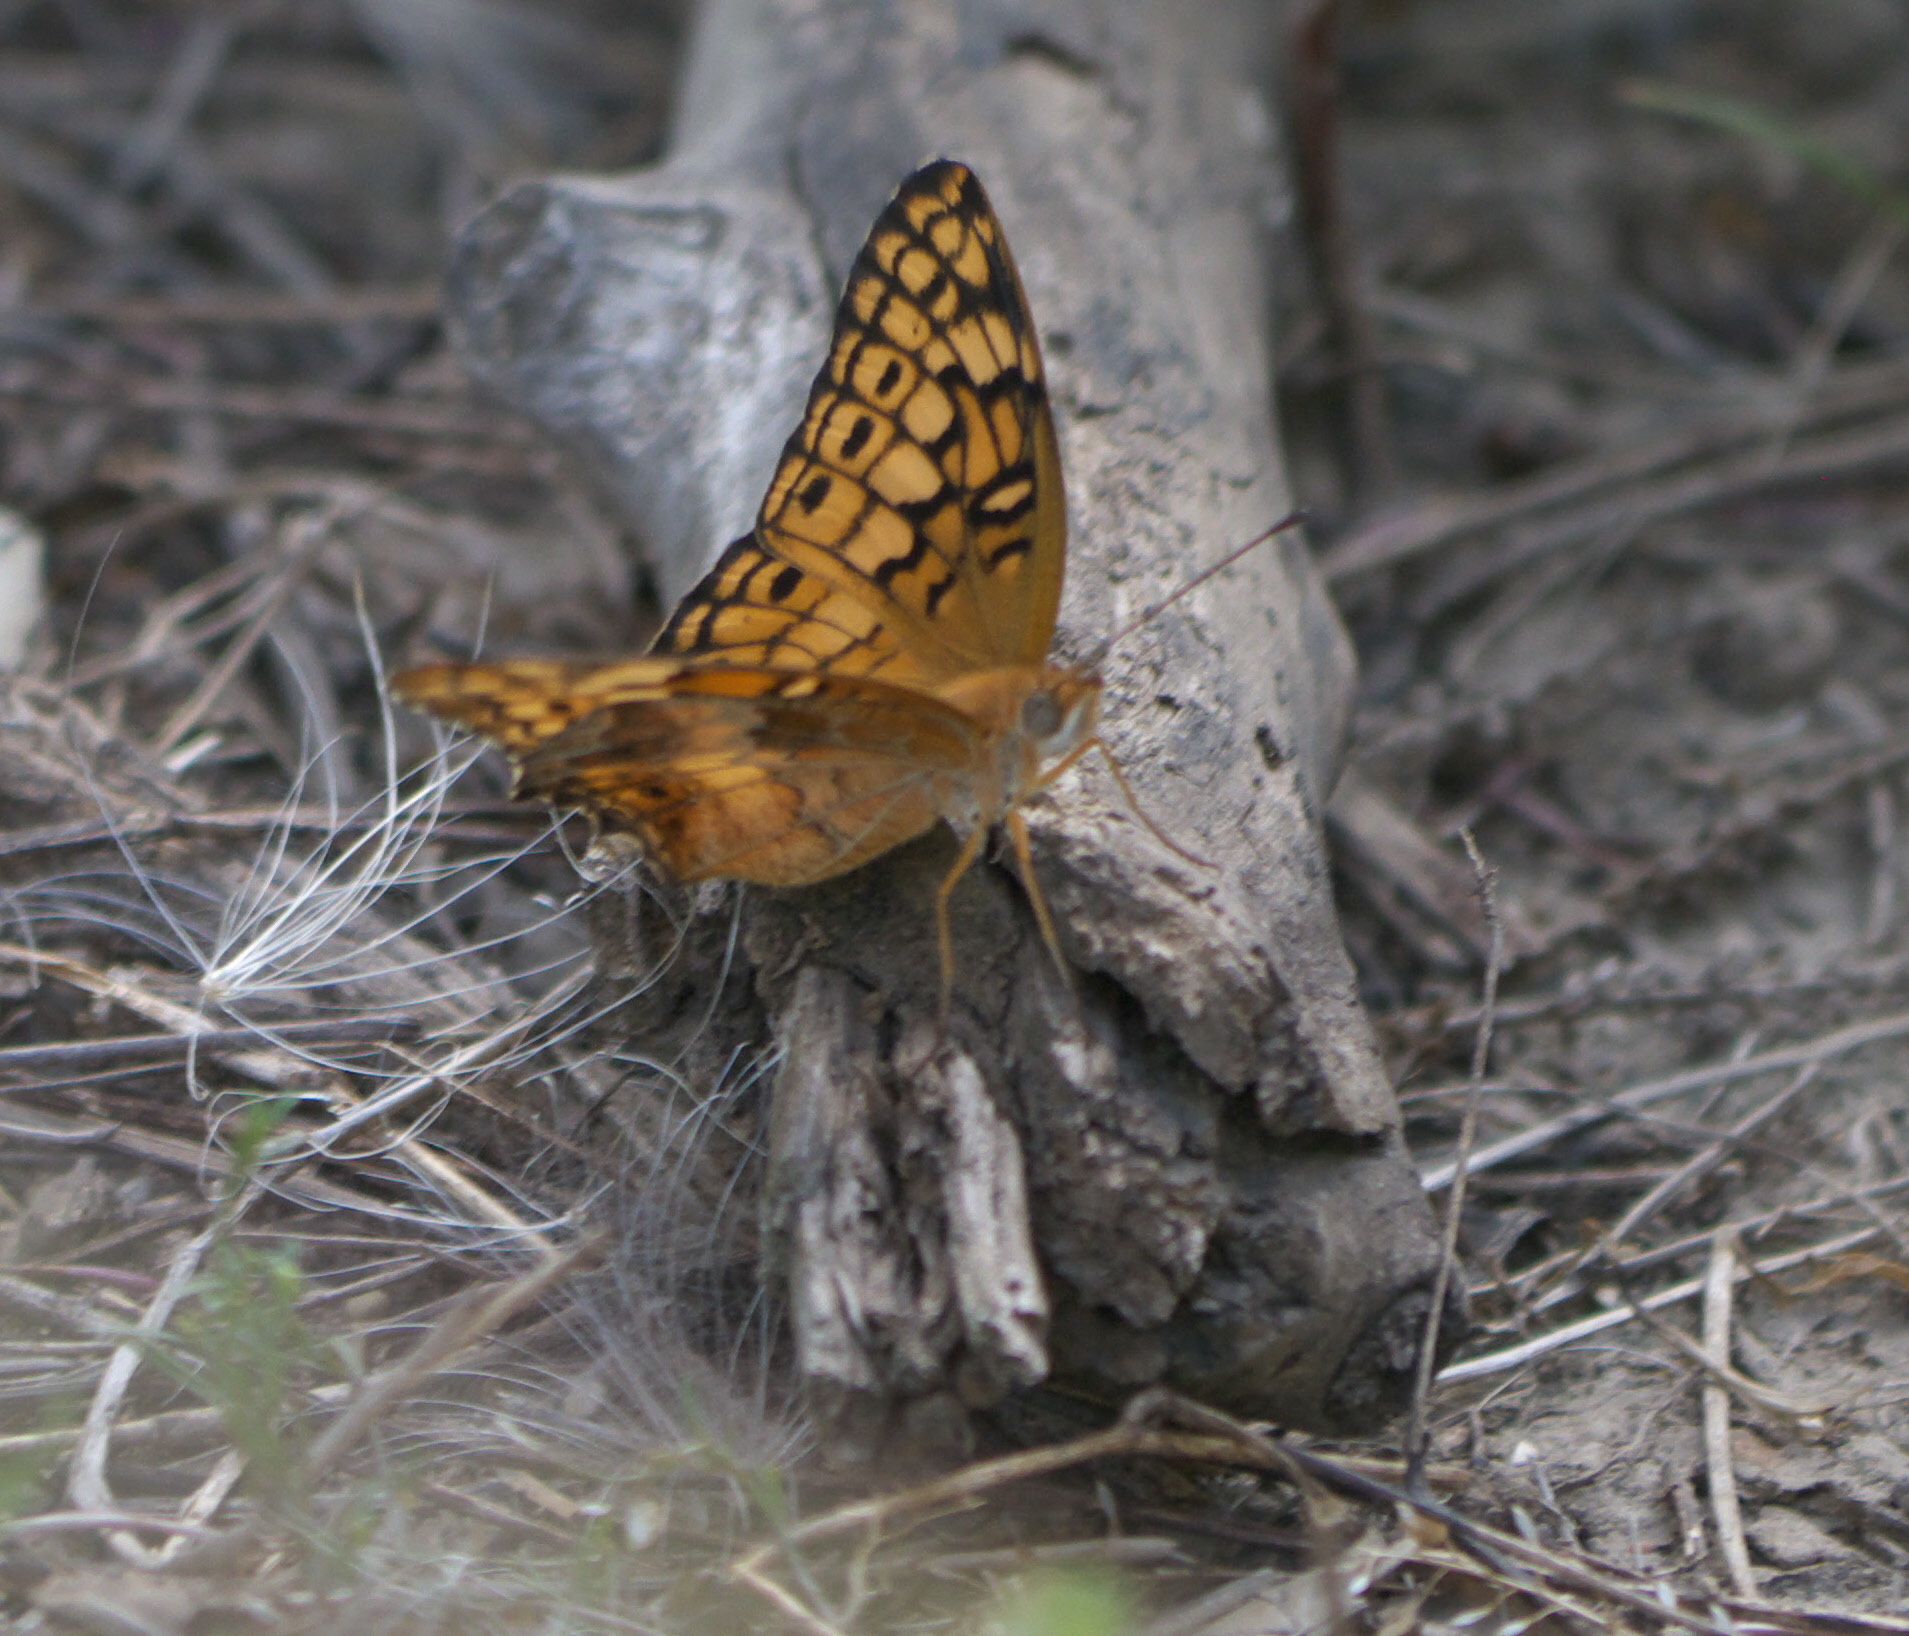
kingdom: Animalia
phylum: Arthropoda
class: Insecta
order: Lepidoptera
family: Nymphalidae
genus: Euptoieta
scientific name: Euptoieta claudia
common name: Variegated fritillary
